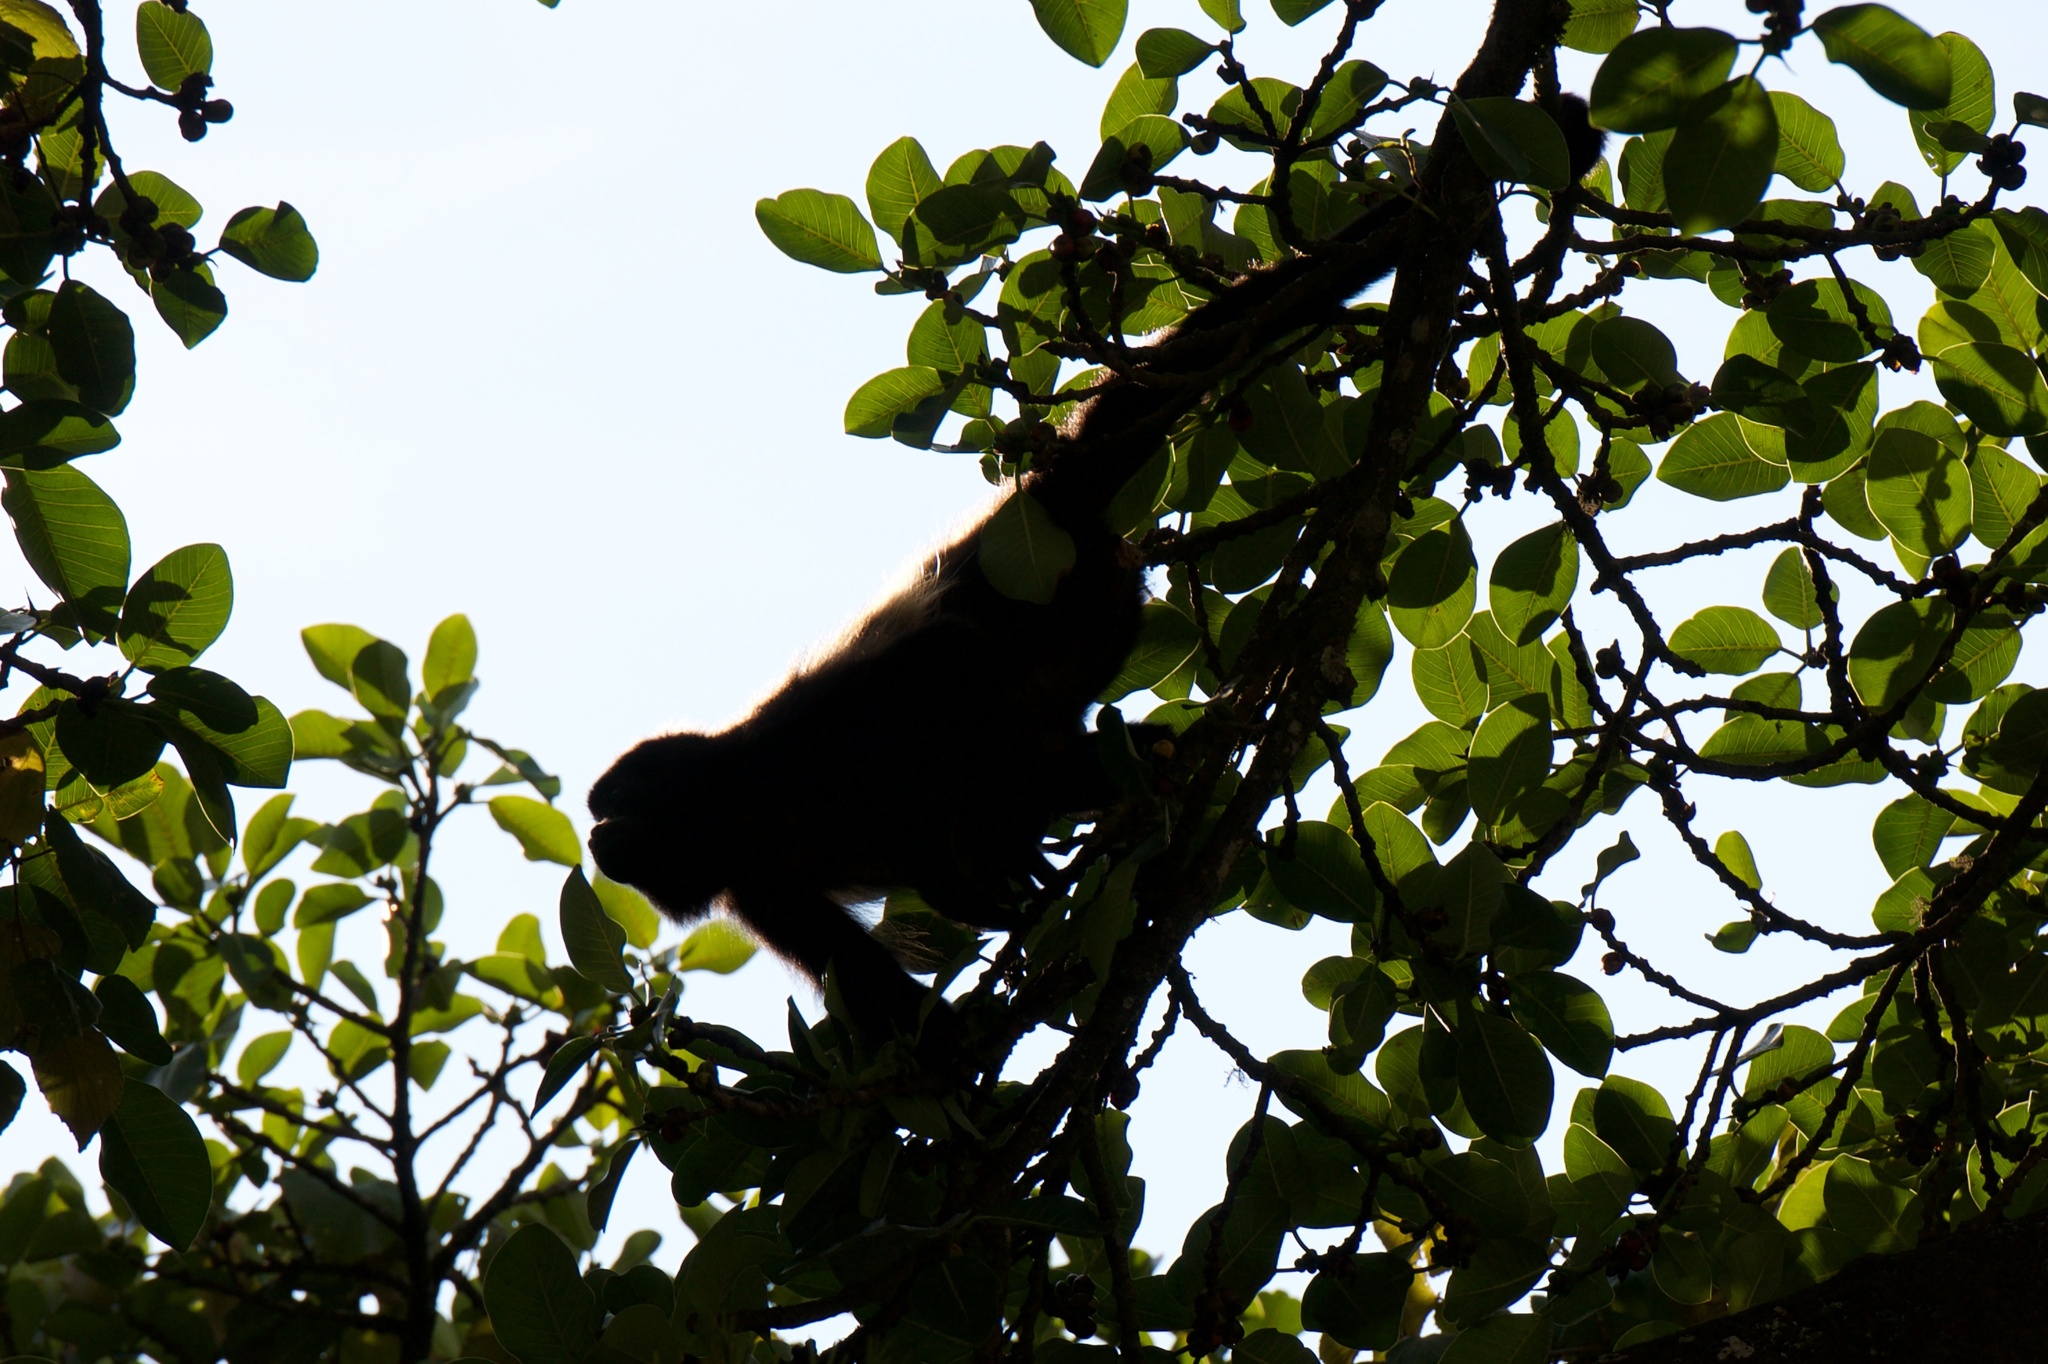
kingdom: Animalia
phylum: Chordata
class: Mammalia
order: Primates
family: Atelidae
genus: Alouatta
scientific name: Alouatta palliata
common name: Mantled howler
